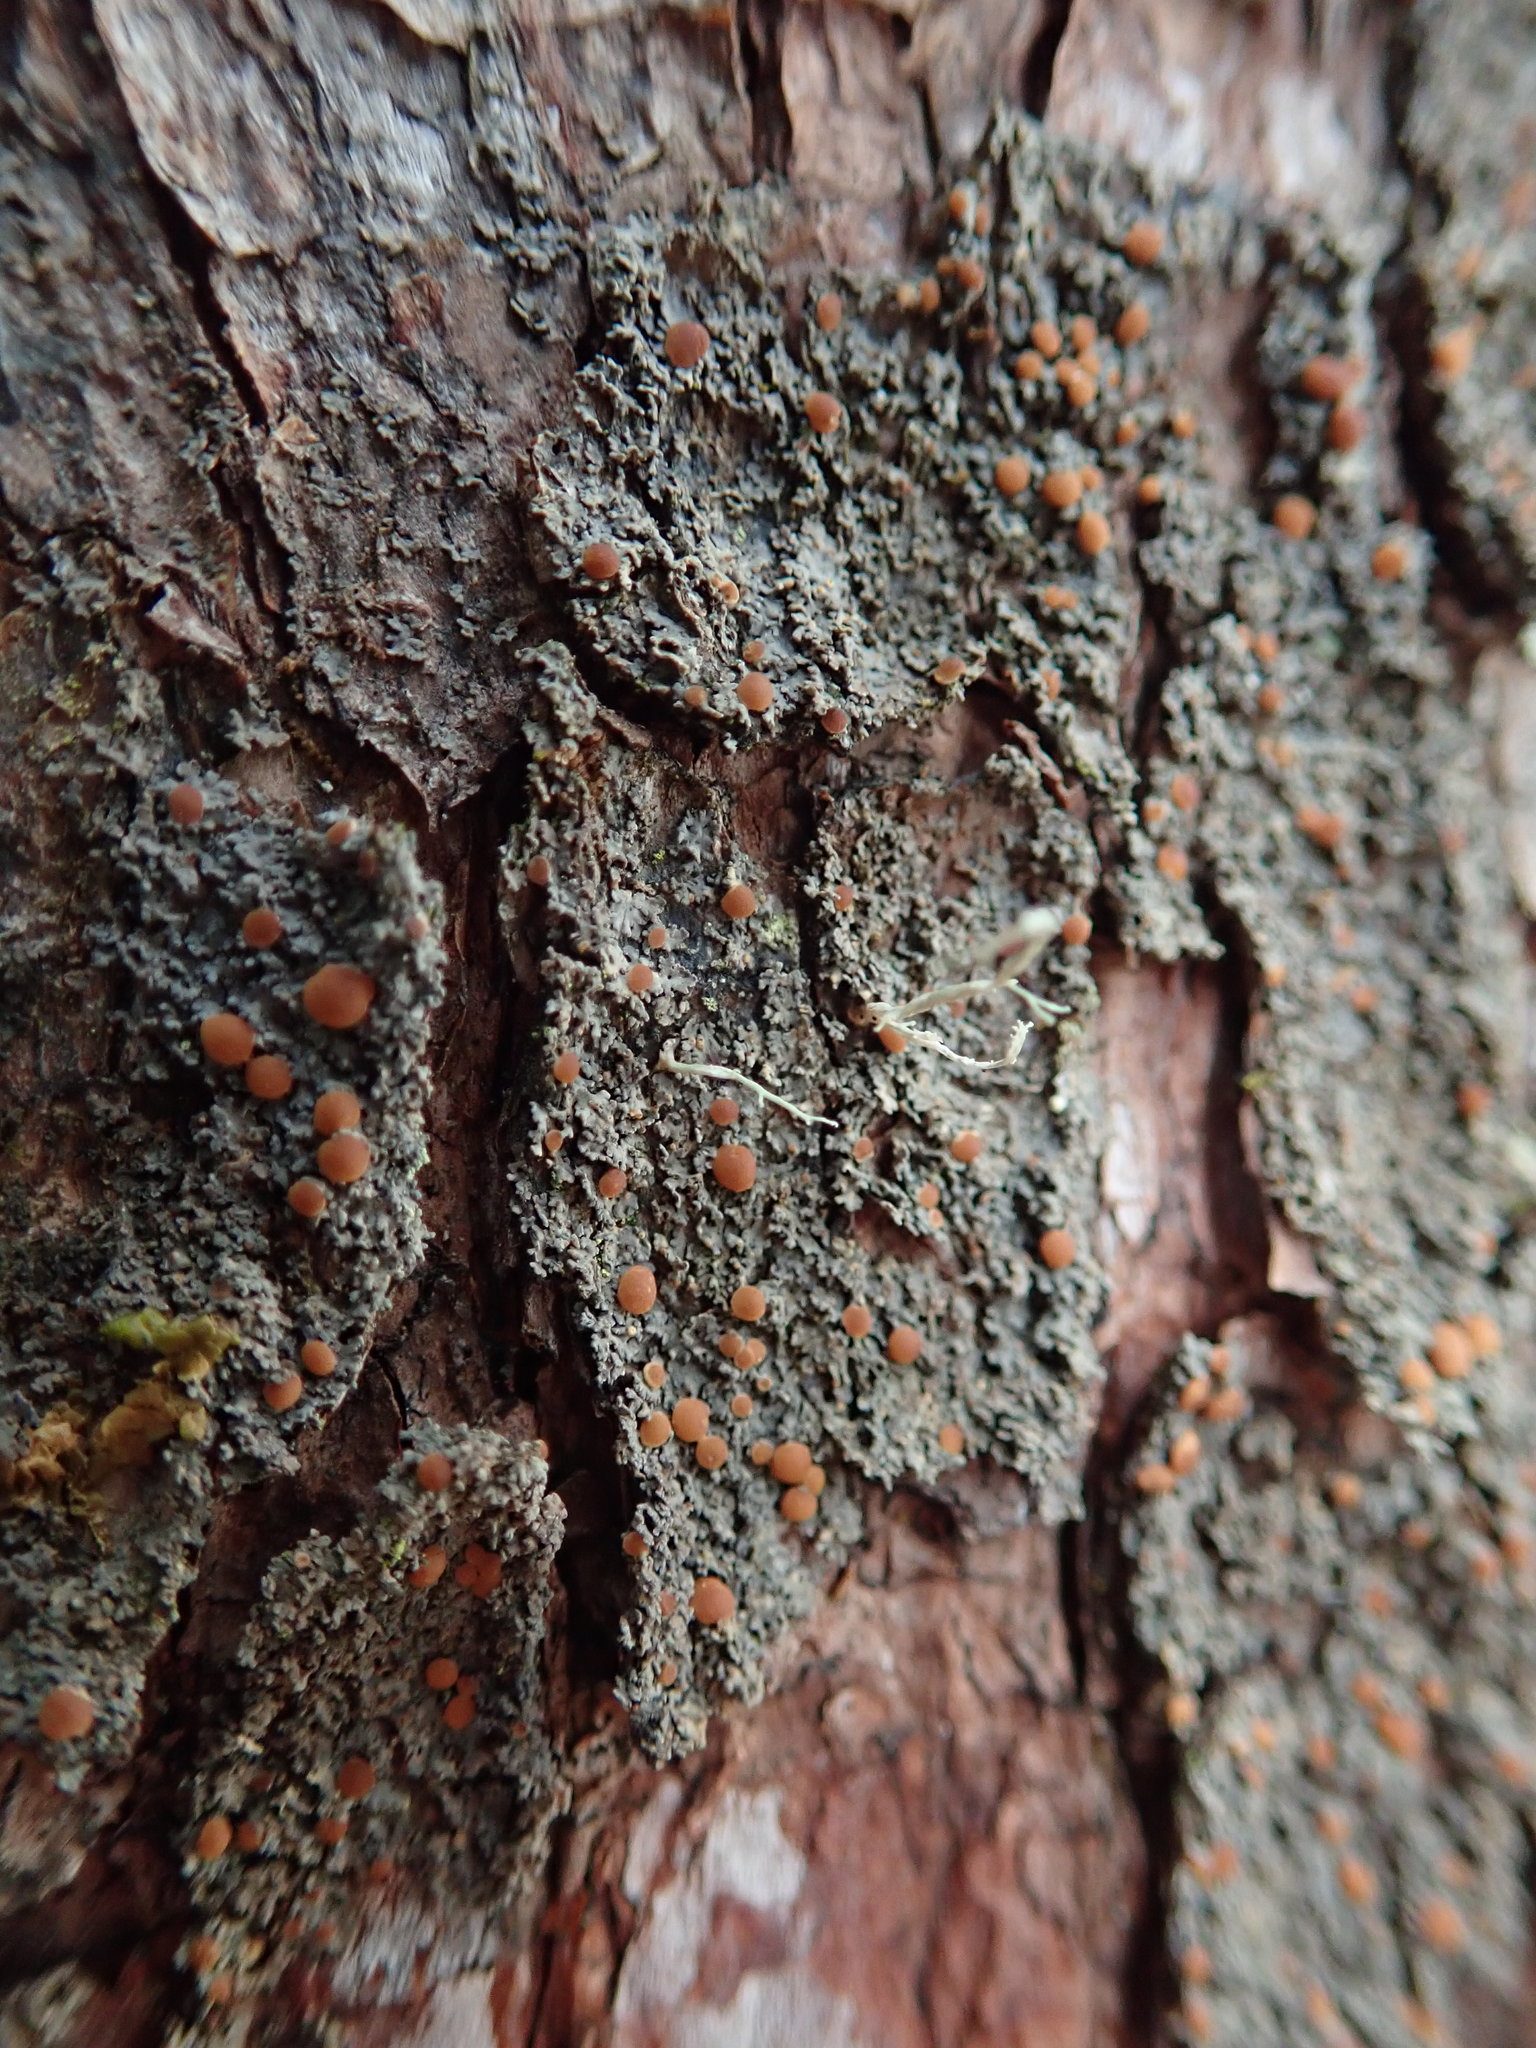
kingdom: Fungi
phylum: Ascomycota
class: Lecanoromycetes
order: Peltigerales
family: Vahliellaceae
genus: Vahliella
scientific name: Vahliella saubinetii
